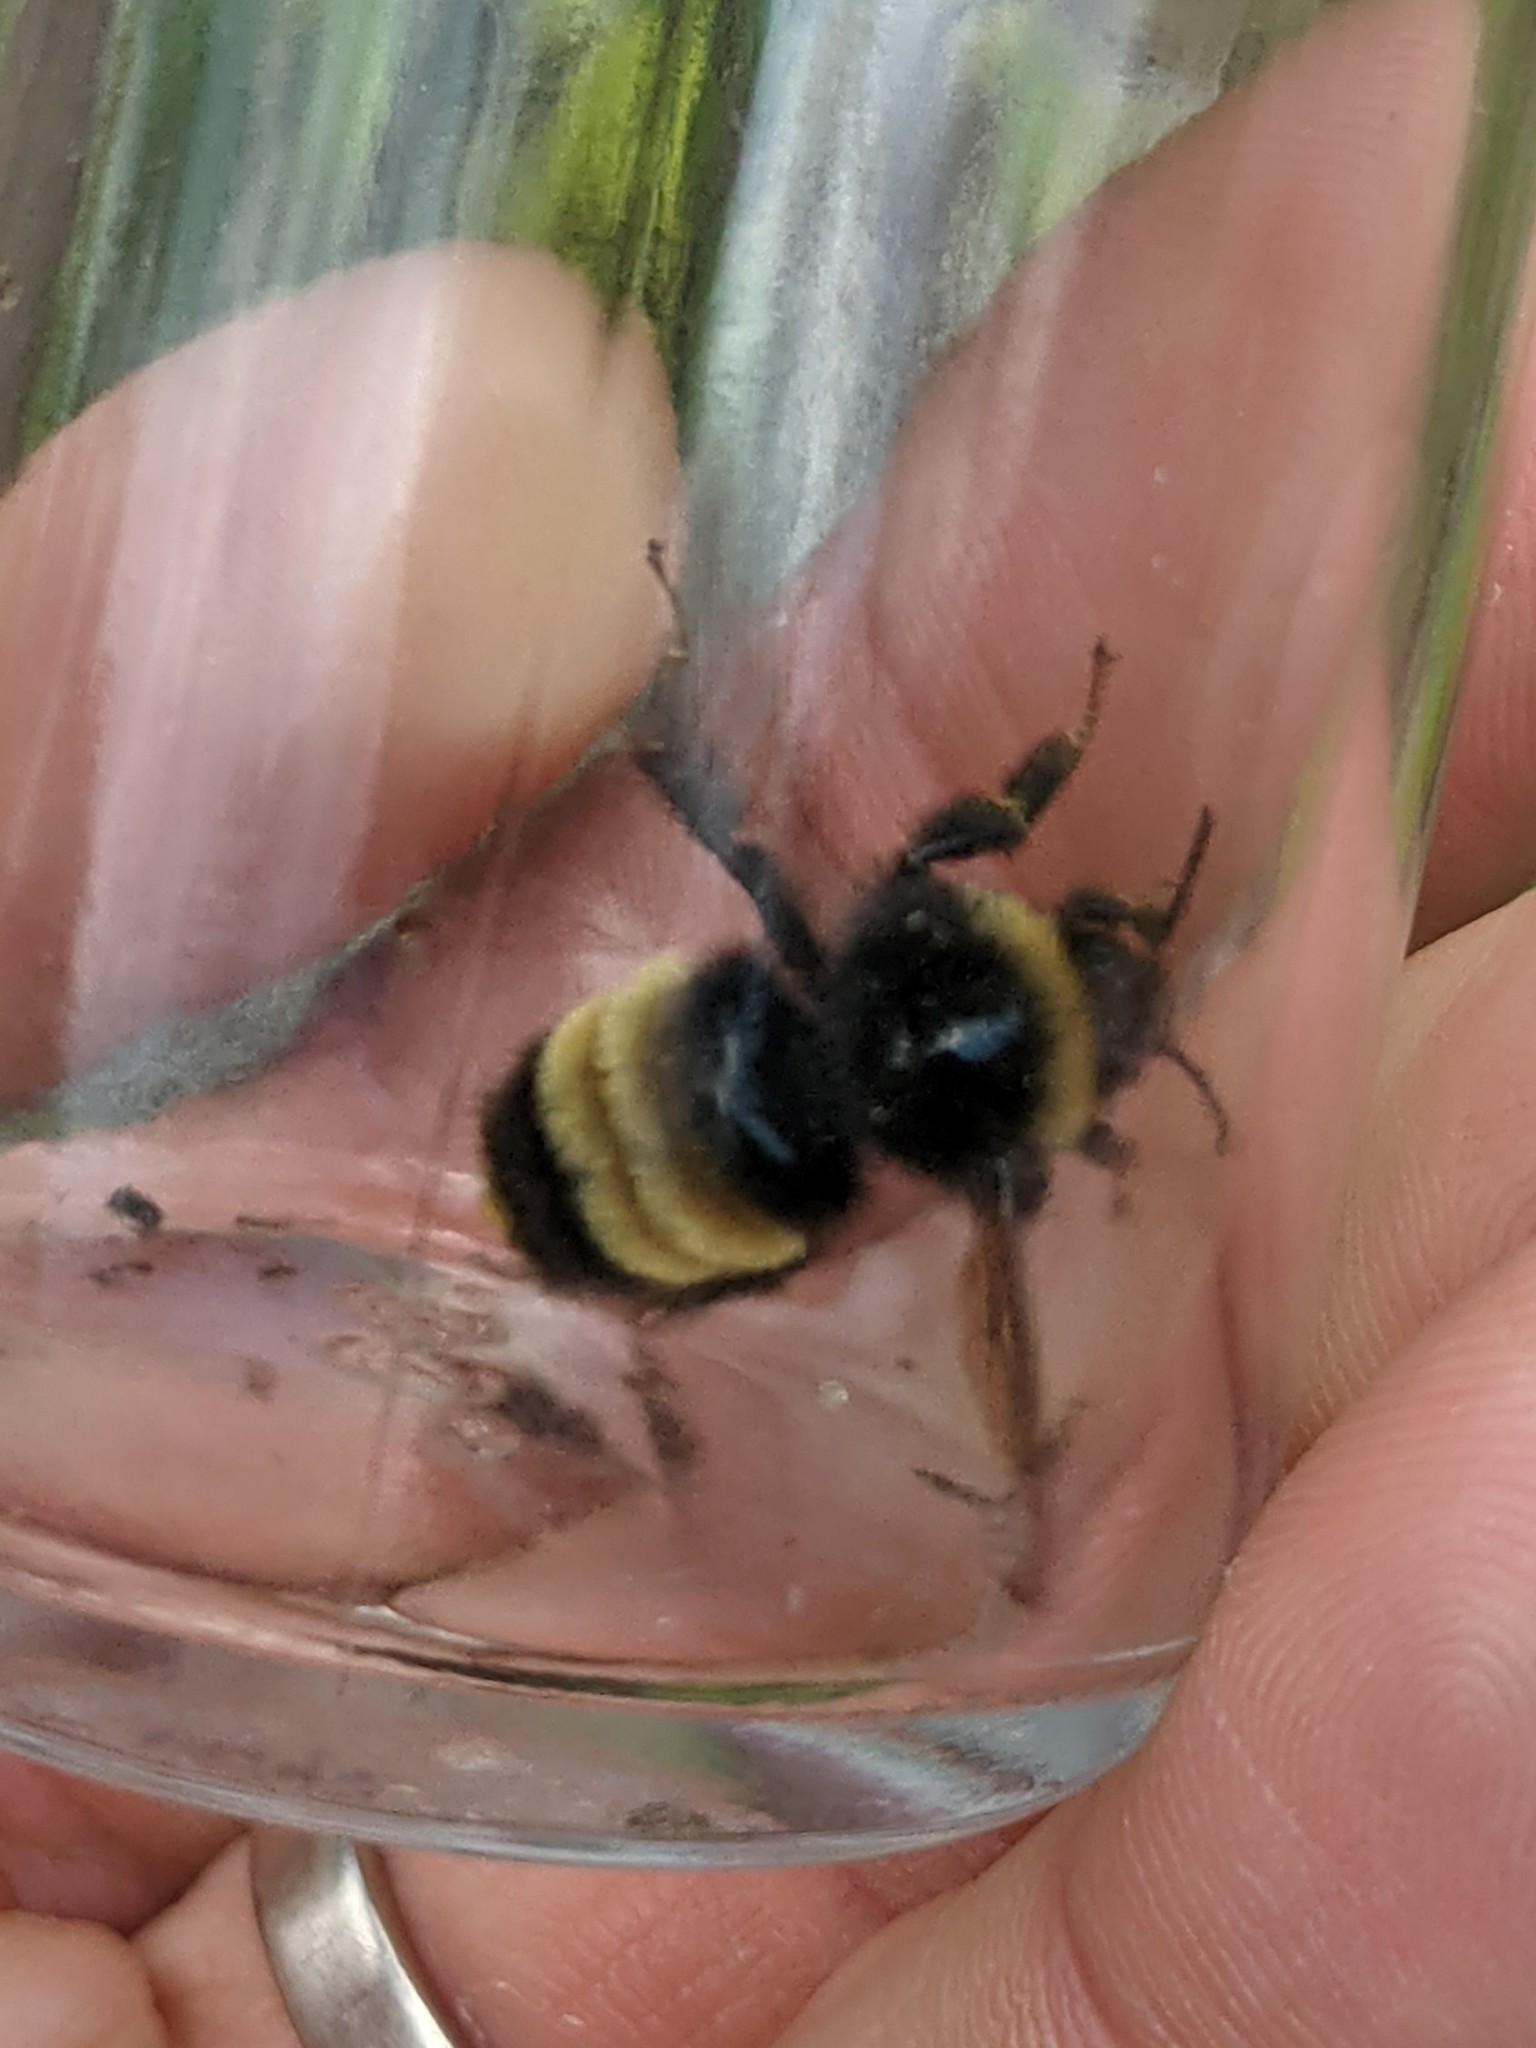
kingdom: Animalia
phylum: Arthropoda
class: Insecta
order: Hymenoptera
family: Apidae
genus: Bombus
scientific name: Bombus terricola
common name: Yellow-banded bumble bee
